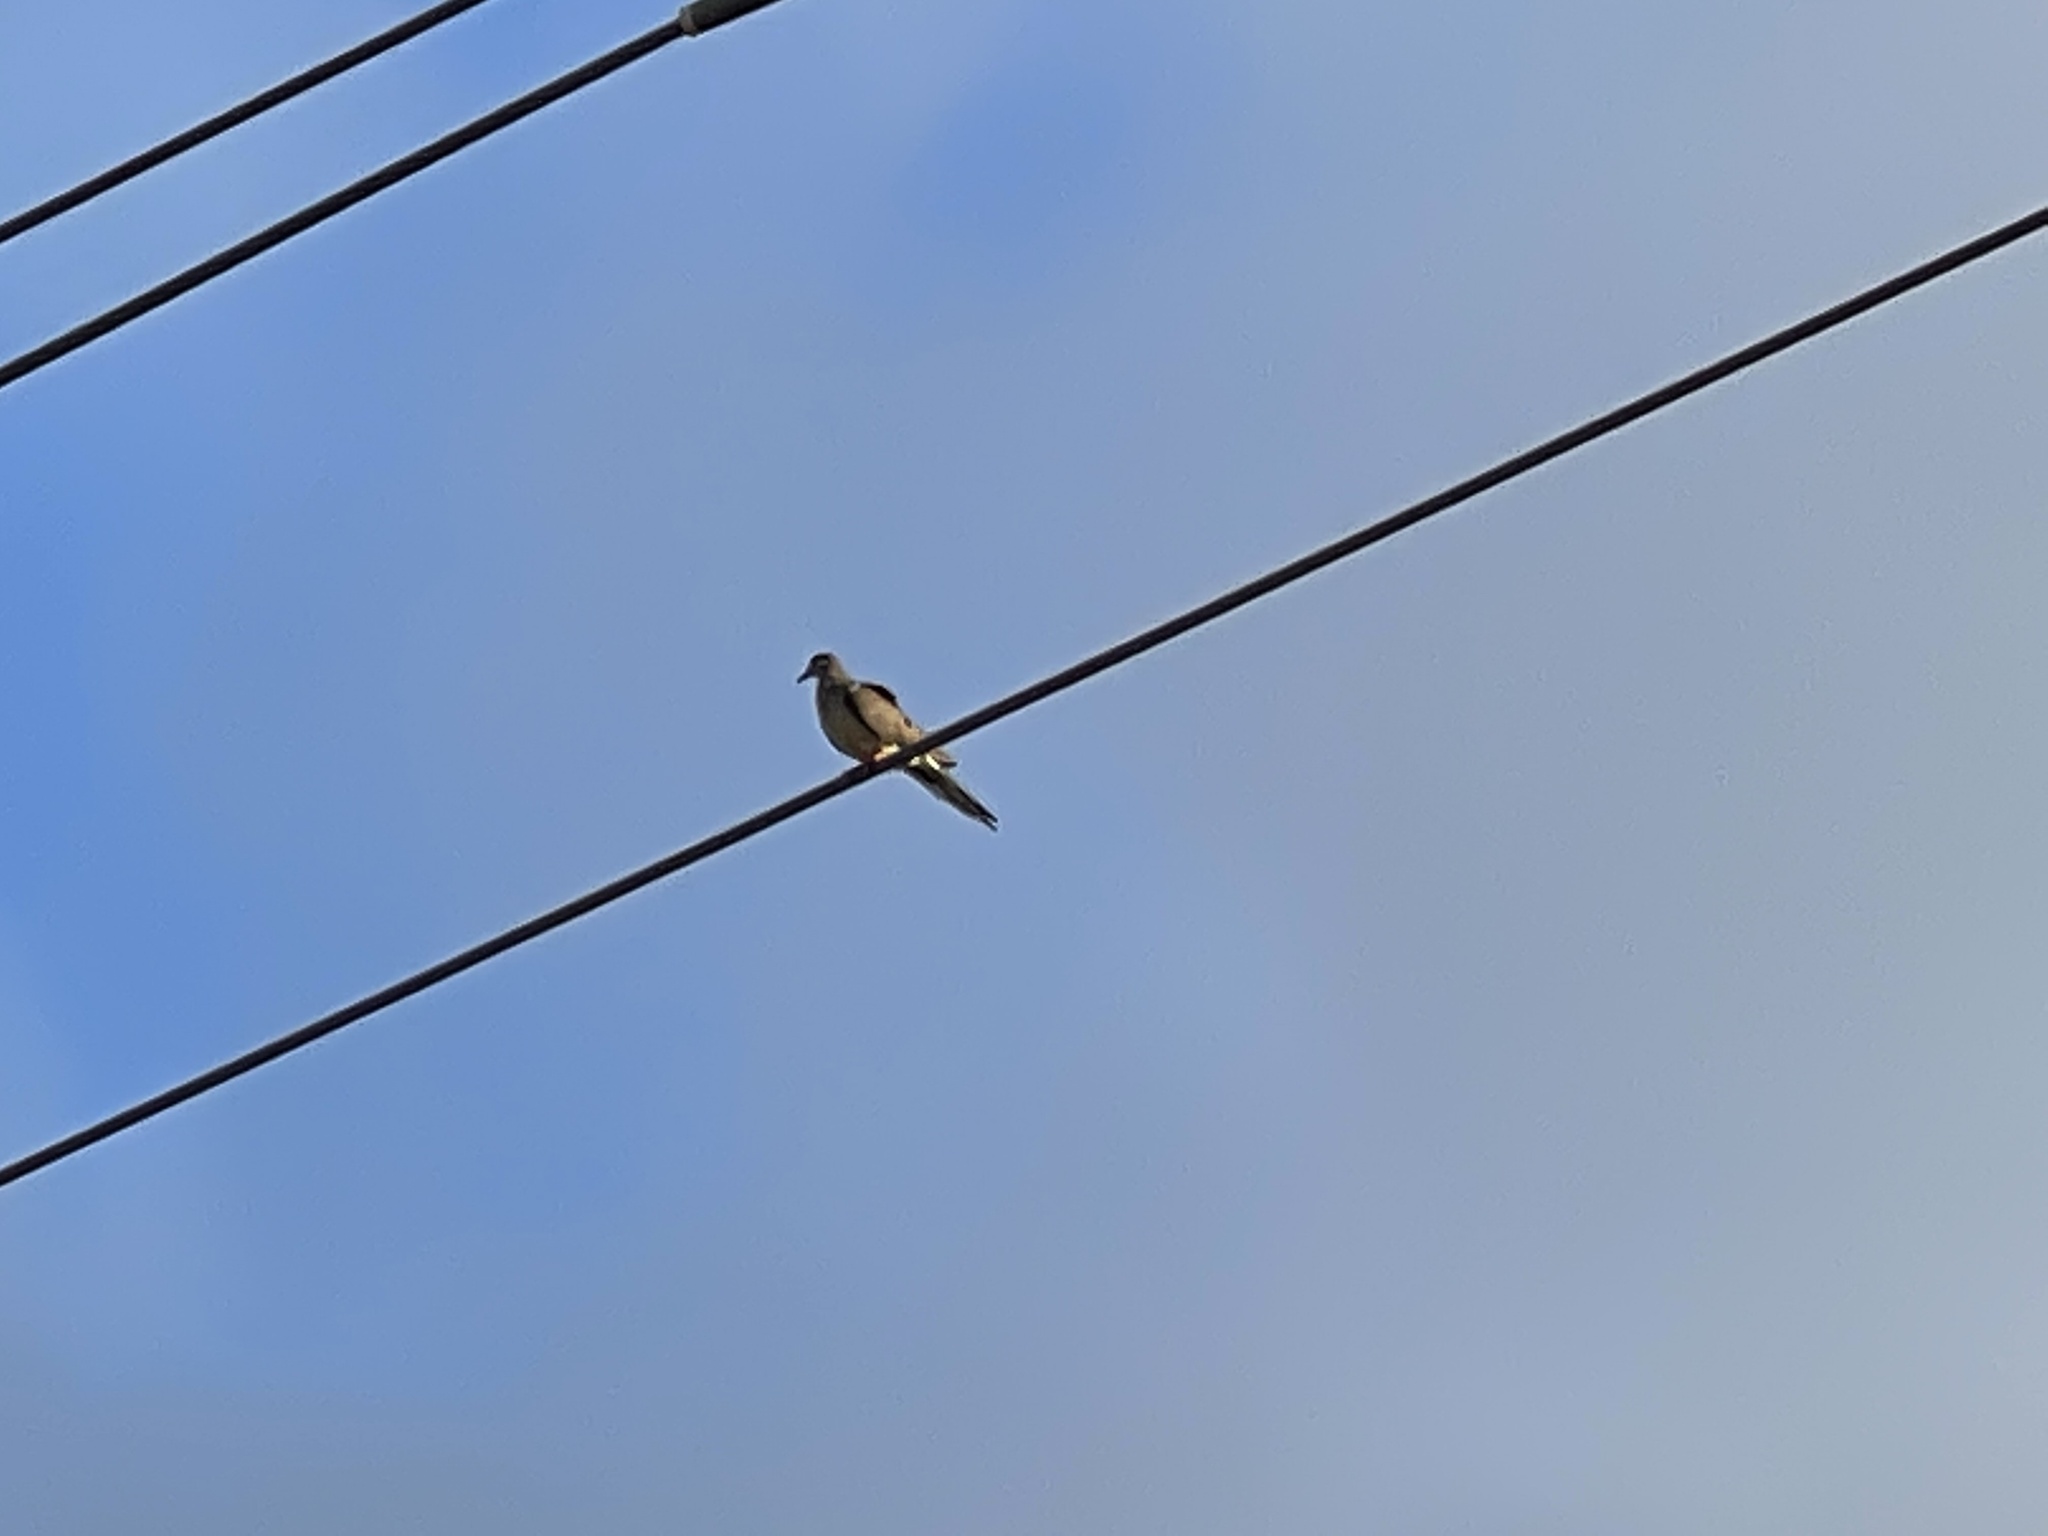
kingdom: Animalia
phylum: Chordata
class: Aves
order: Columbiformes
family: Columbidae
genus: Zenaida
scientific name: Zenaida macroura
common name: Mourning dove
